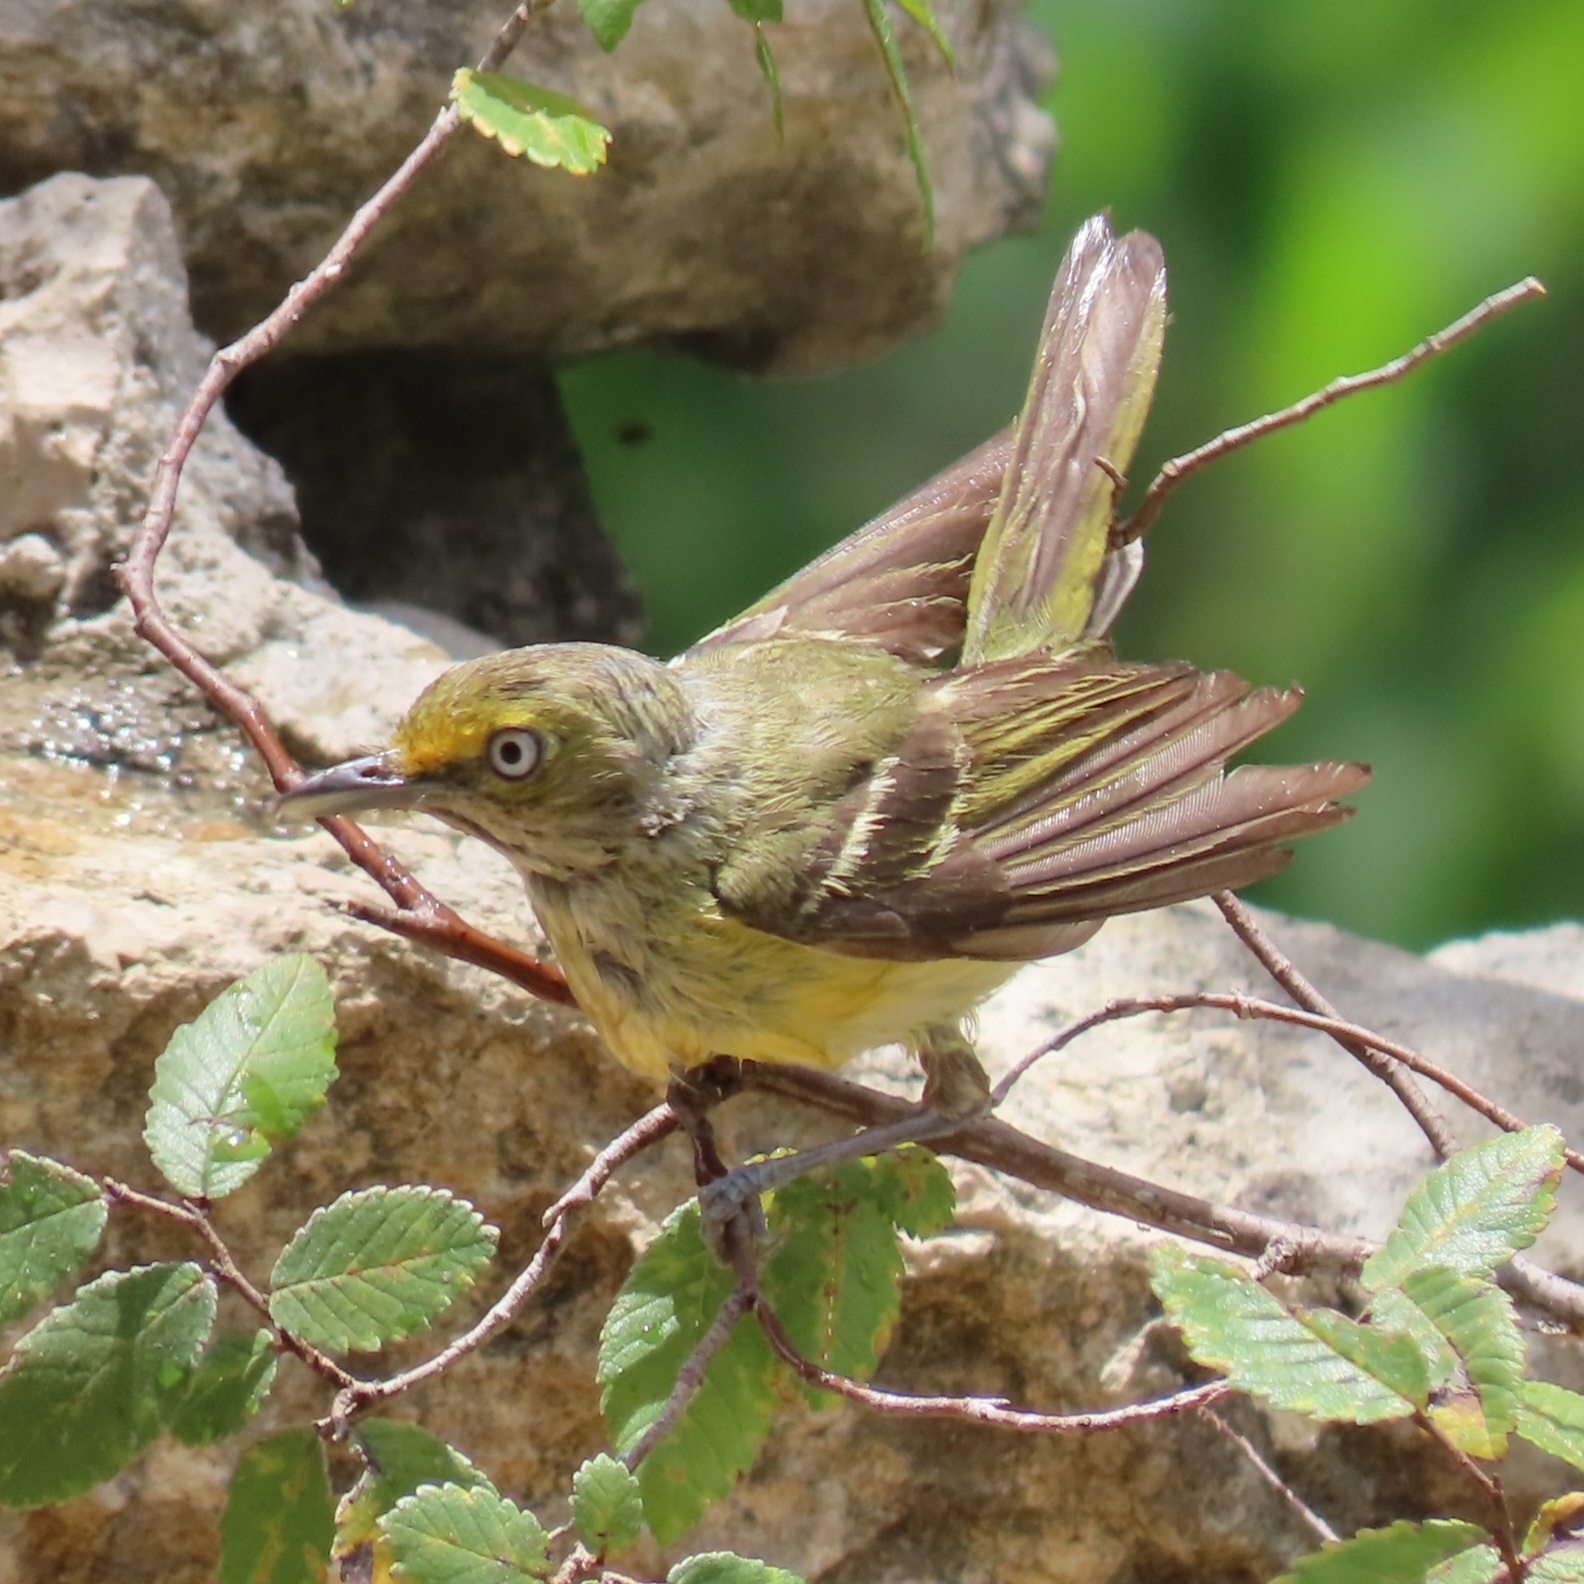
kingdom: Animalia
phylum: Chordata
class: Aves
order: Passeriformes
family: Vireonidae
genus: Vireo
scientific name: Vireo griseus
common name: White-eyed vireo
